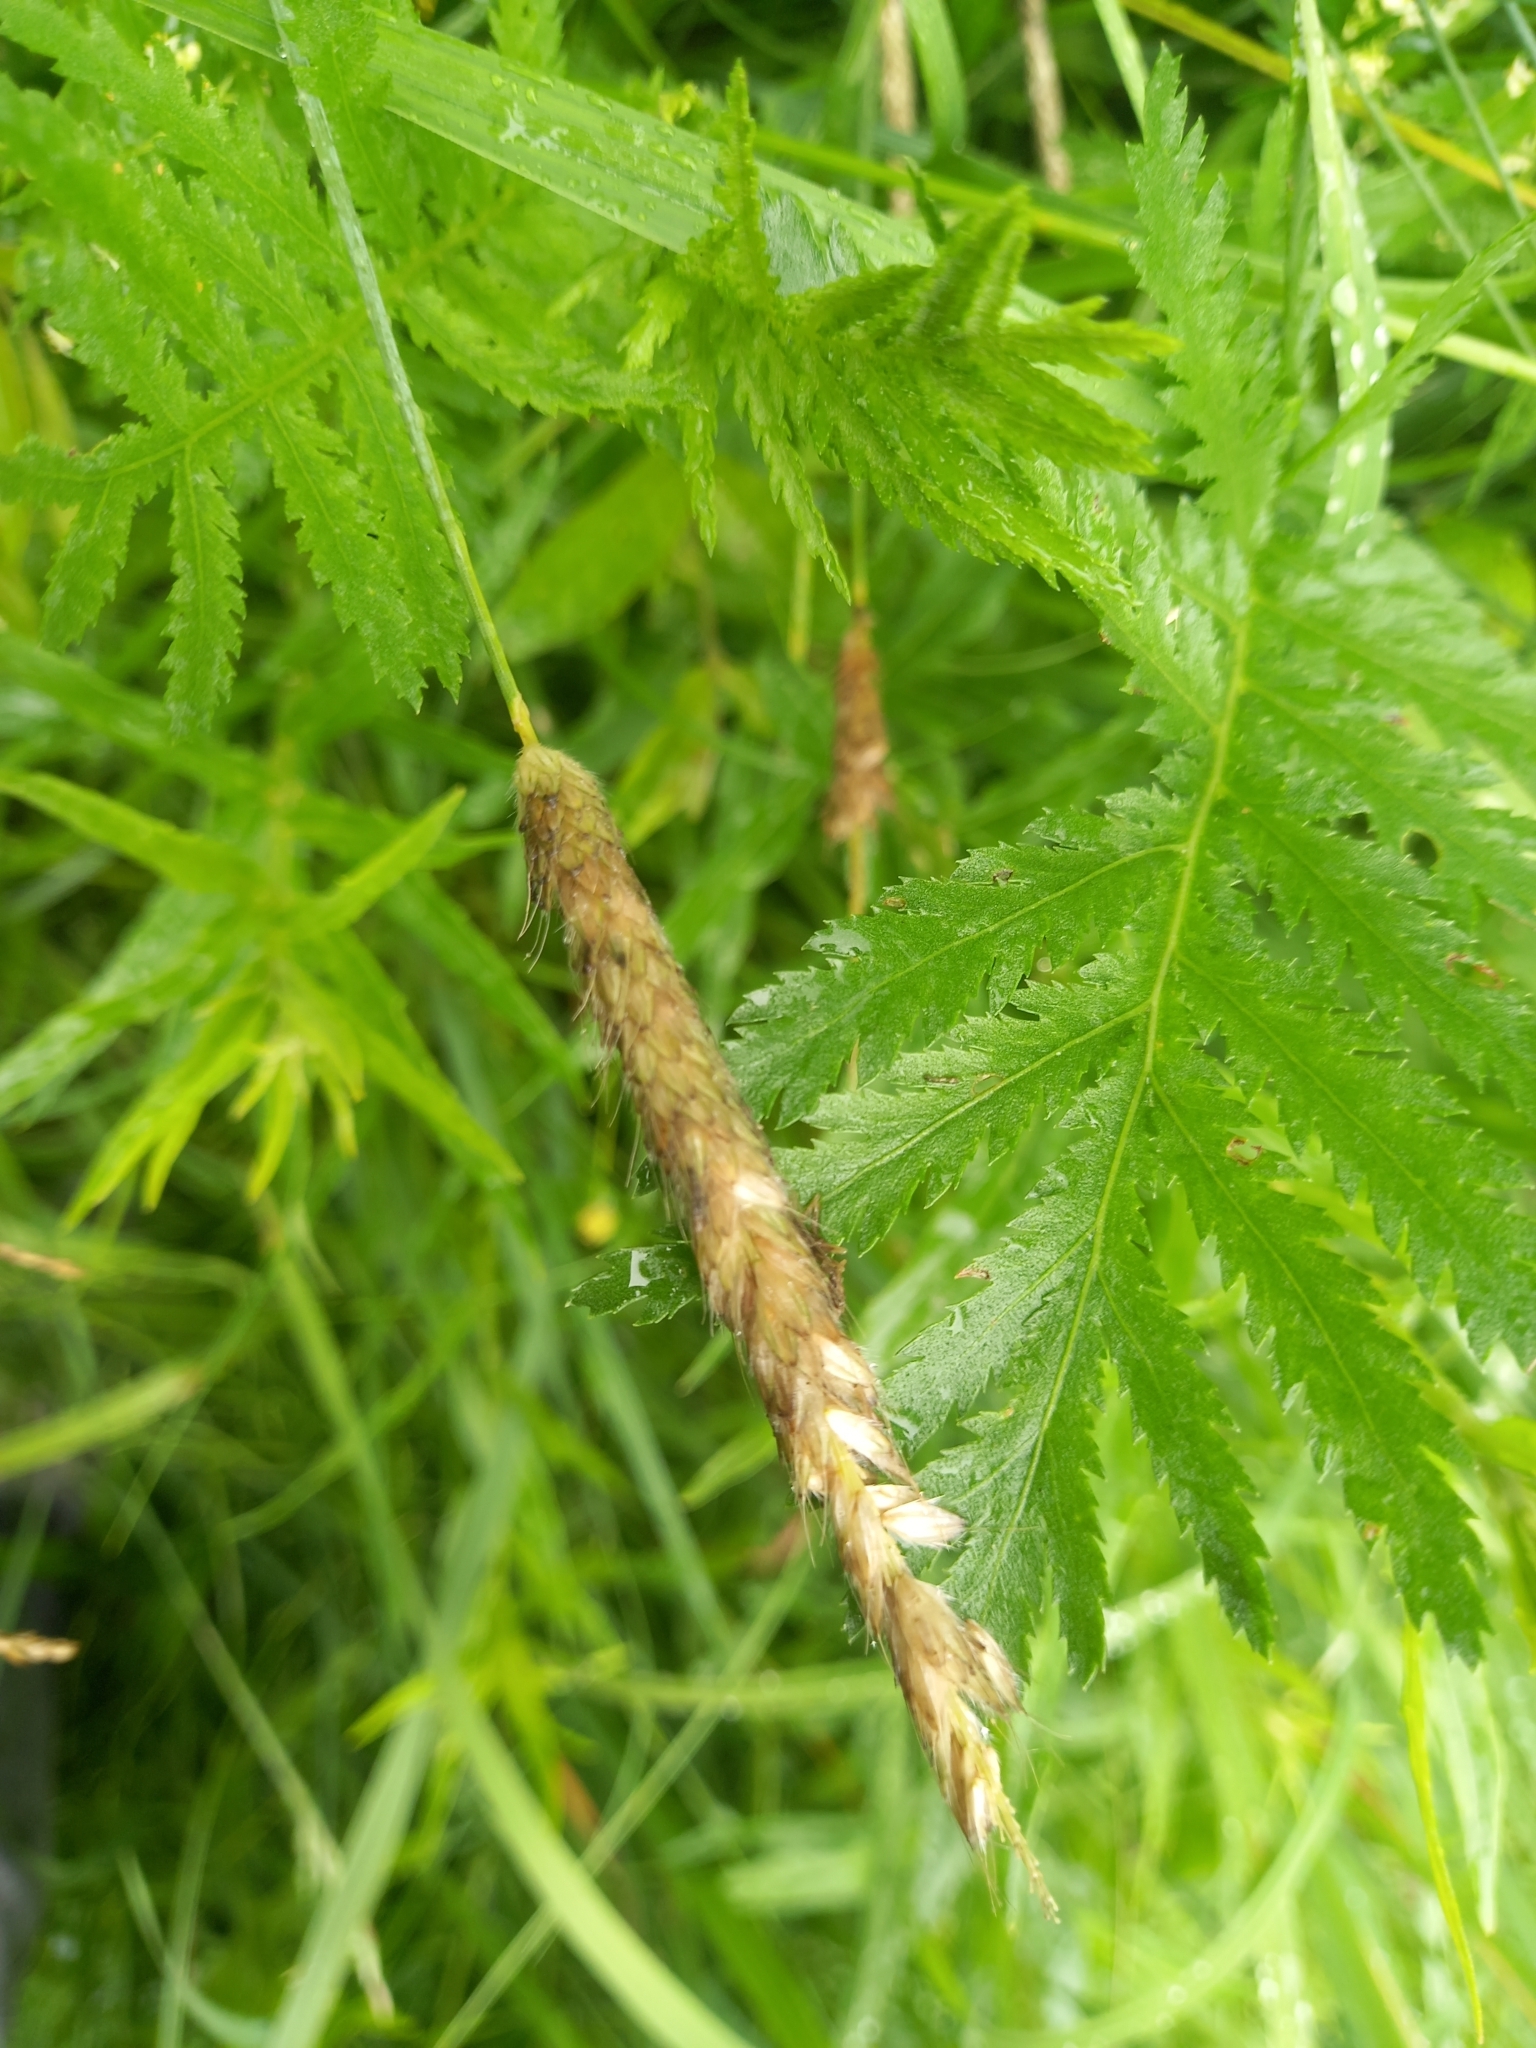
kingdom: Plantae
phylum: Tracheophyta
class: Liliopsida
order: Poales
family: Poaceae
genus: Alopecurus
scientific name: Alopecurus pratensis
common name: Meadow foxtail
